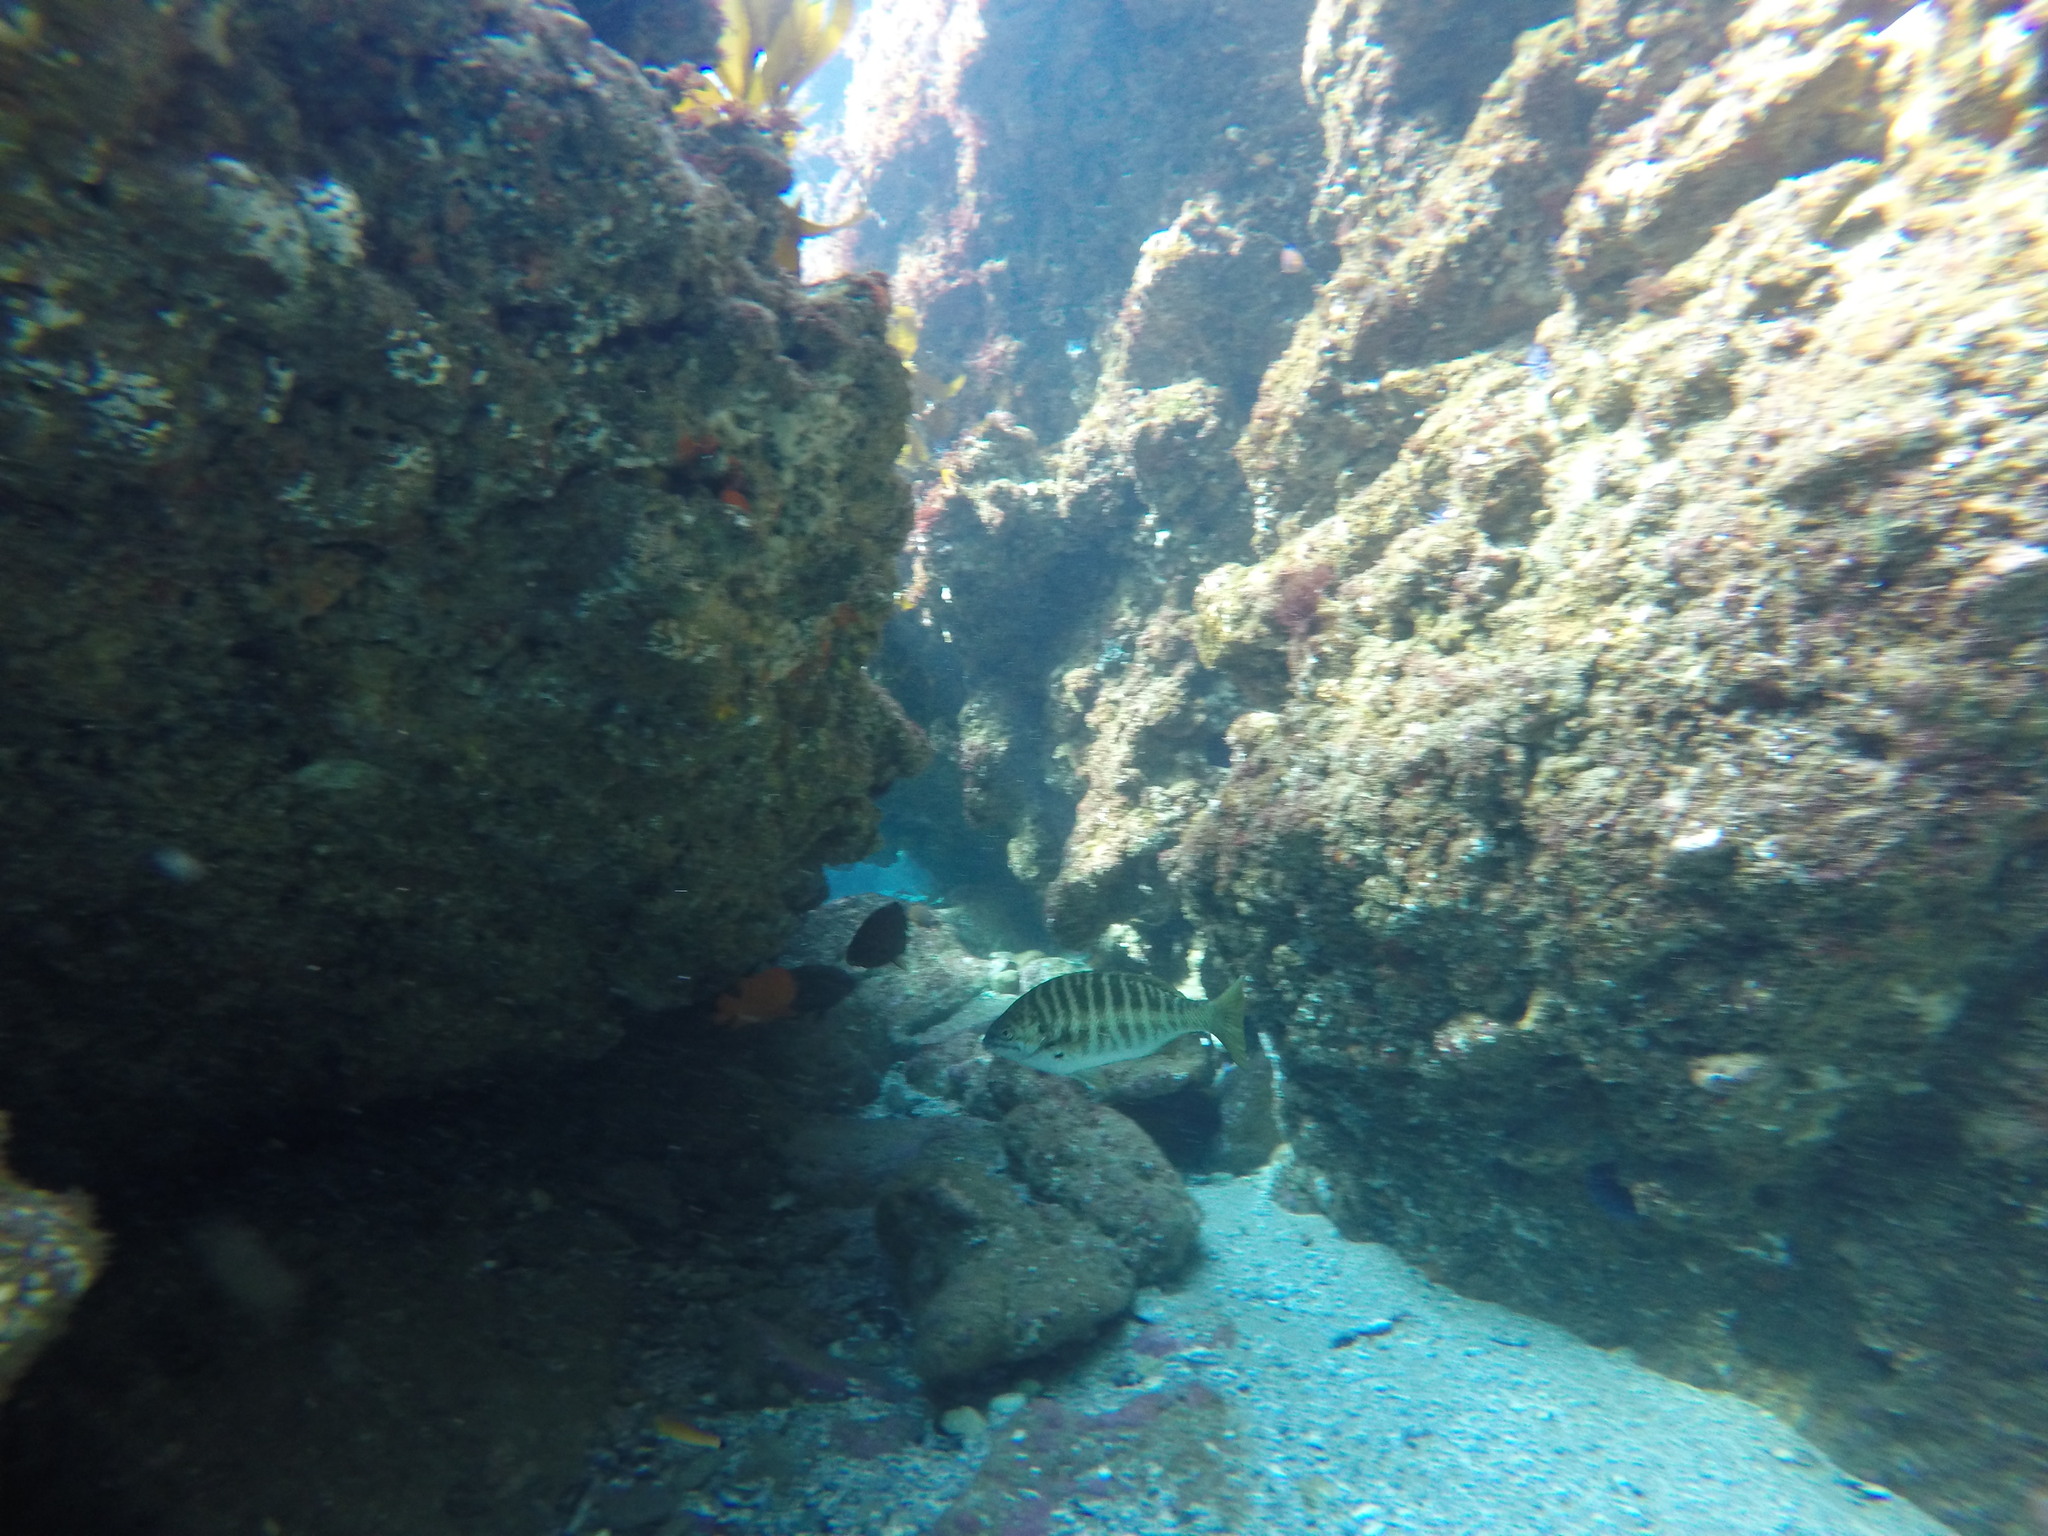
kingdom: Animalia
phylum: Chordata
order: Perciformes
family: Kyphosidae
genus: Kyphosus
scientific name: Kyphosus azureus
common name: Perch
